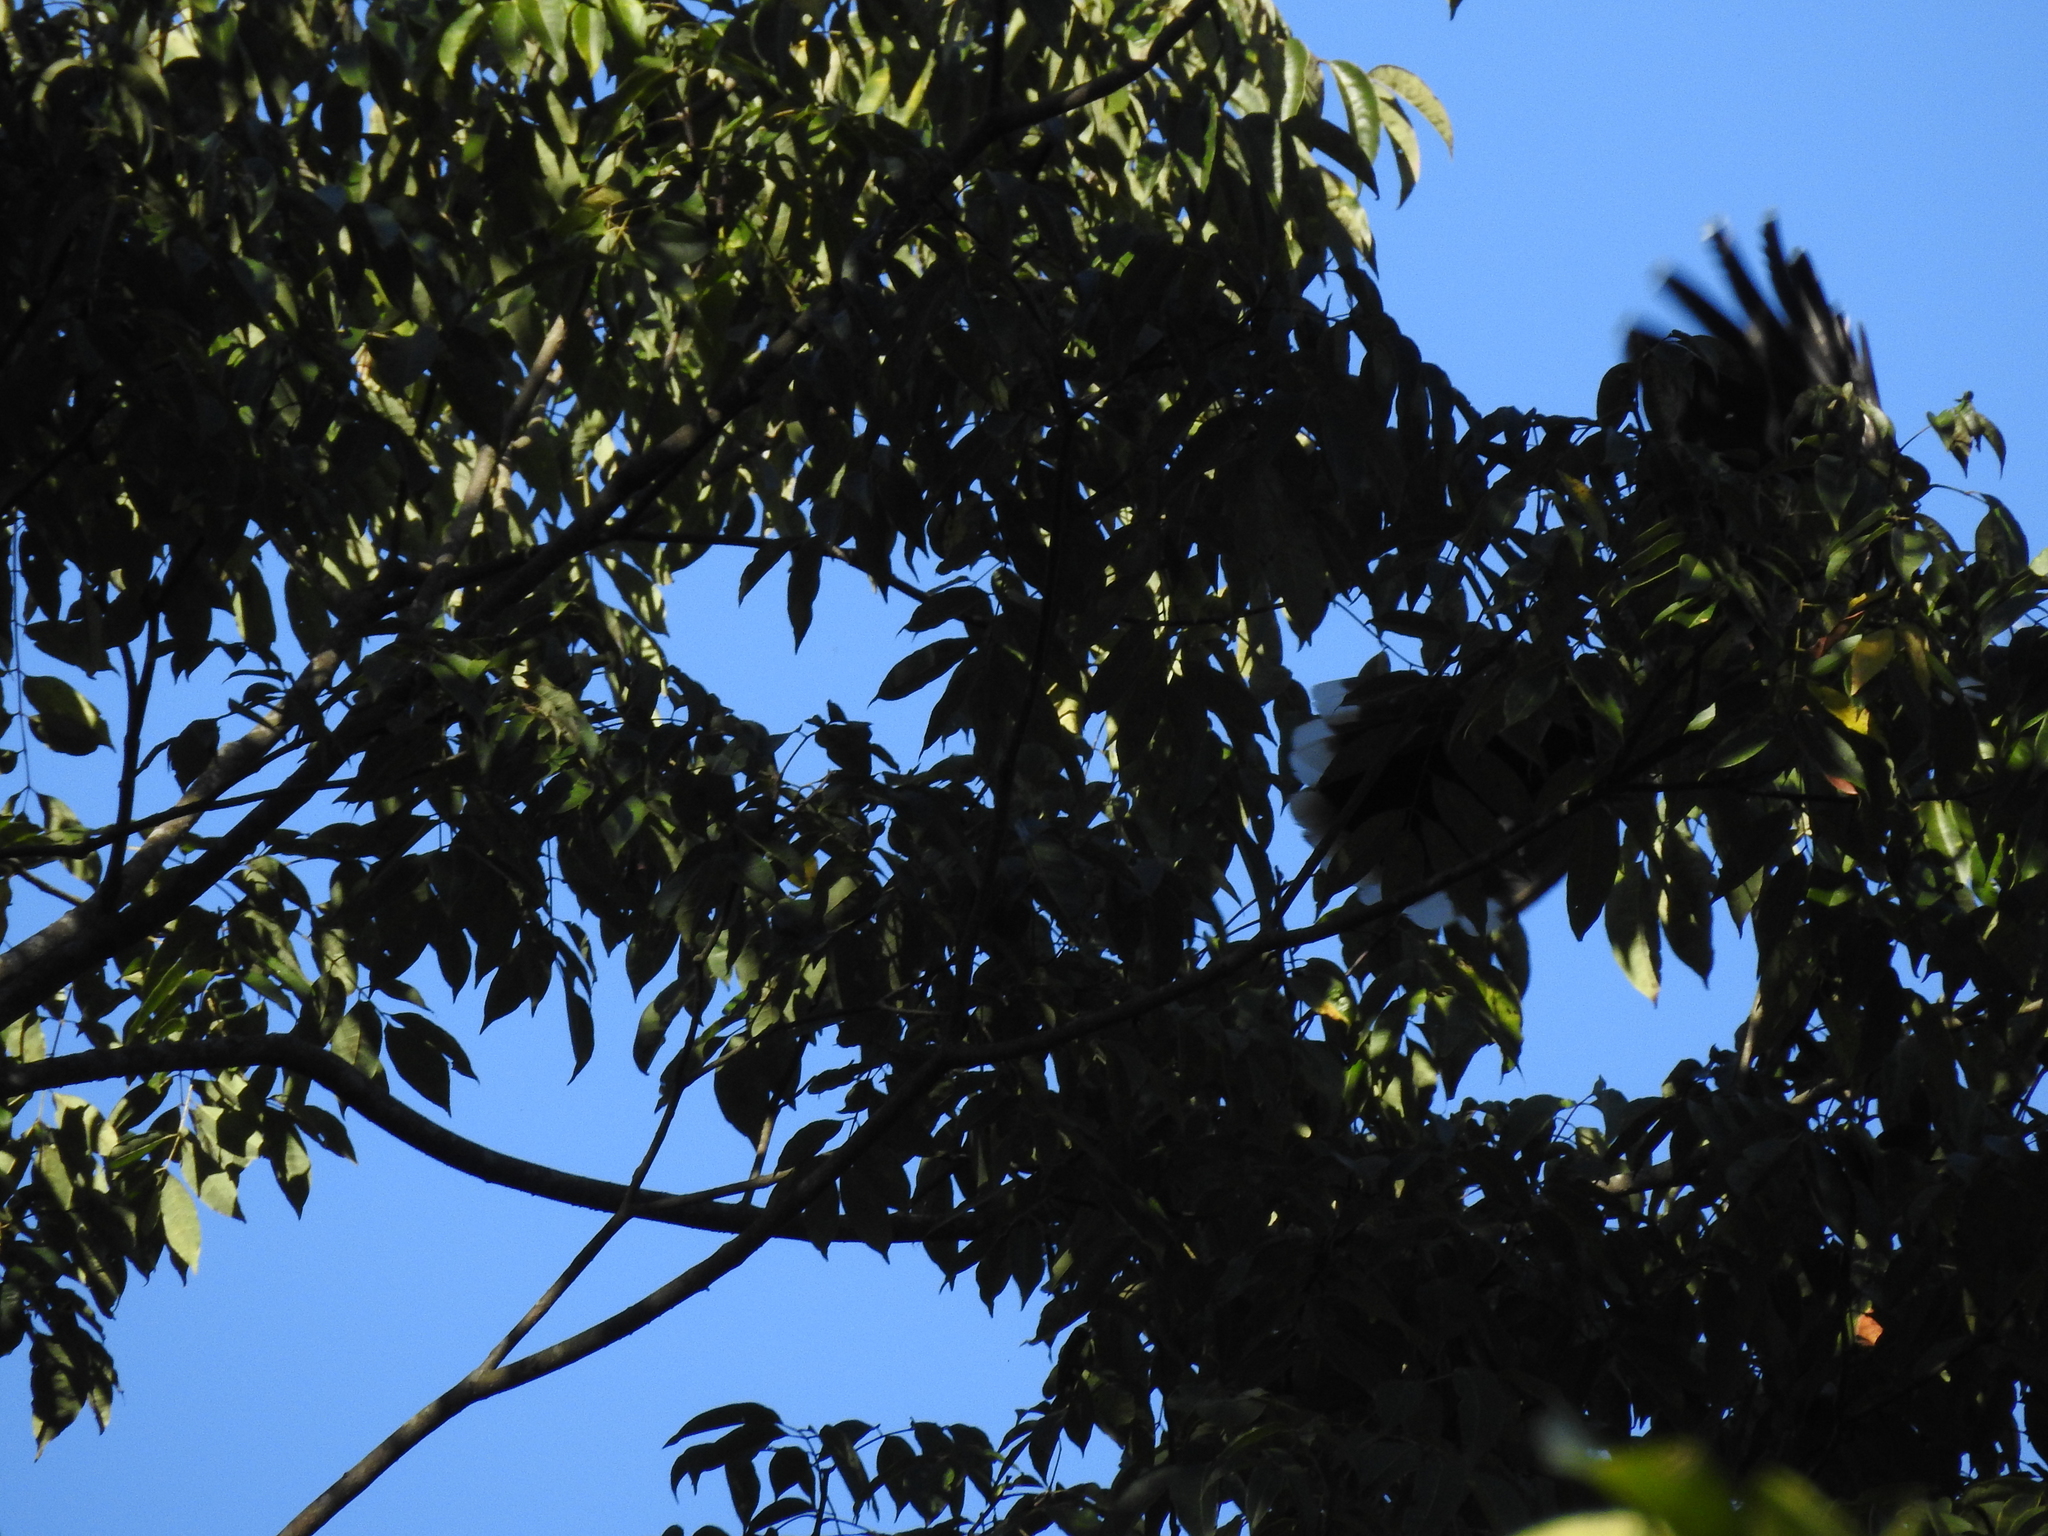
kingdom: Animalia
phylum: Chordata
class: Aves
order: Bucerotiformes
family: Bucerotidae
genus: Anorrhinus
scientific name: Anorrhinus austeni
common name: Austen's brown hornbill
